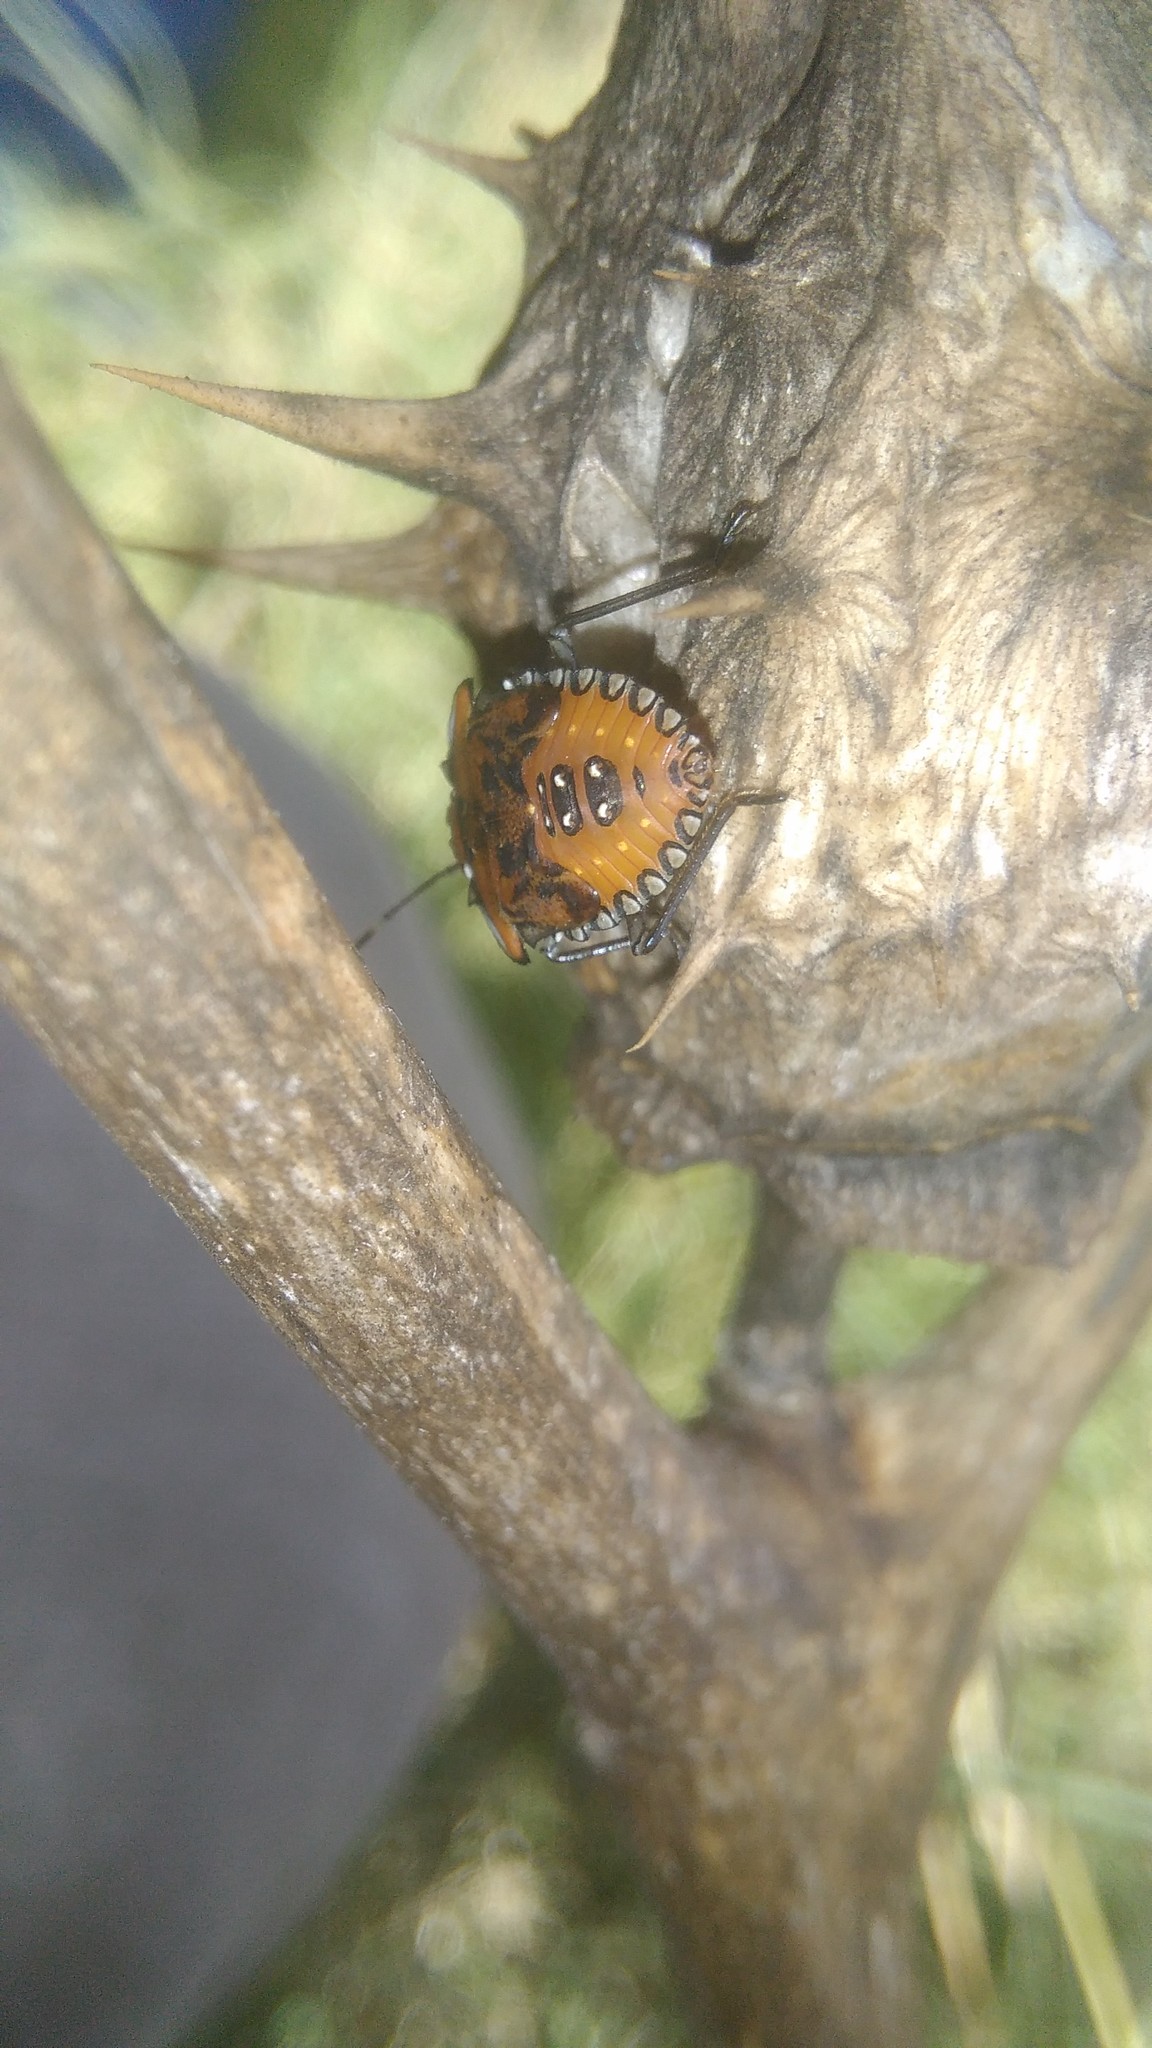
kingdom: Animalia
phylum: Arthropoda
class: Insecta
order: Hemiptera
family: Pentatomidae
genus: Arvelius
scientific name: Arvelius albopunctatus
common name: Tomato stink bug
